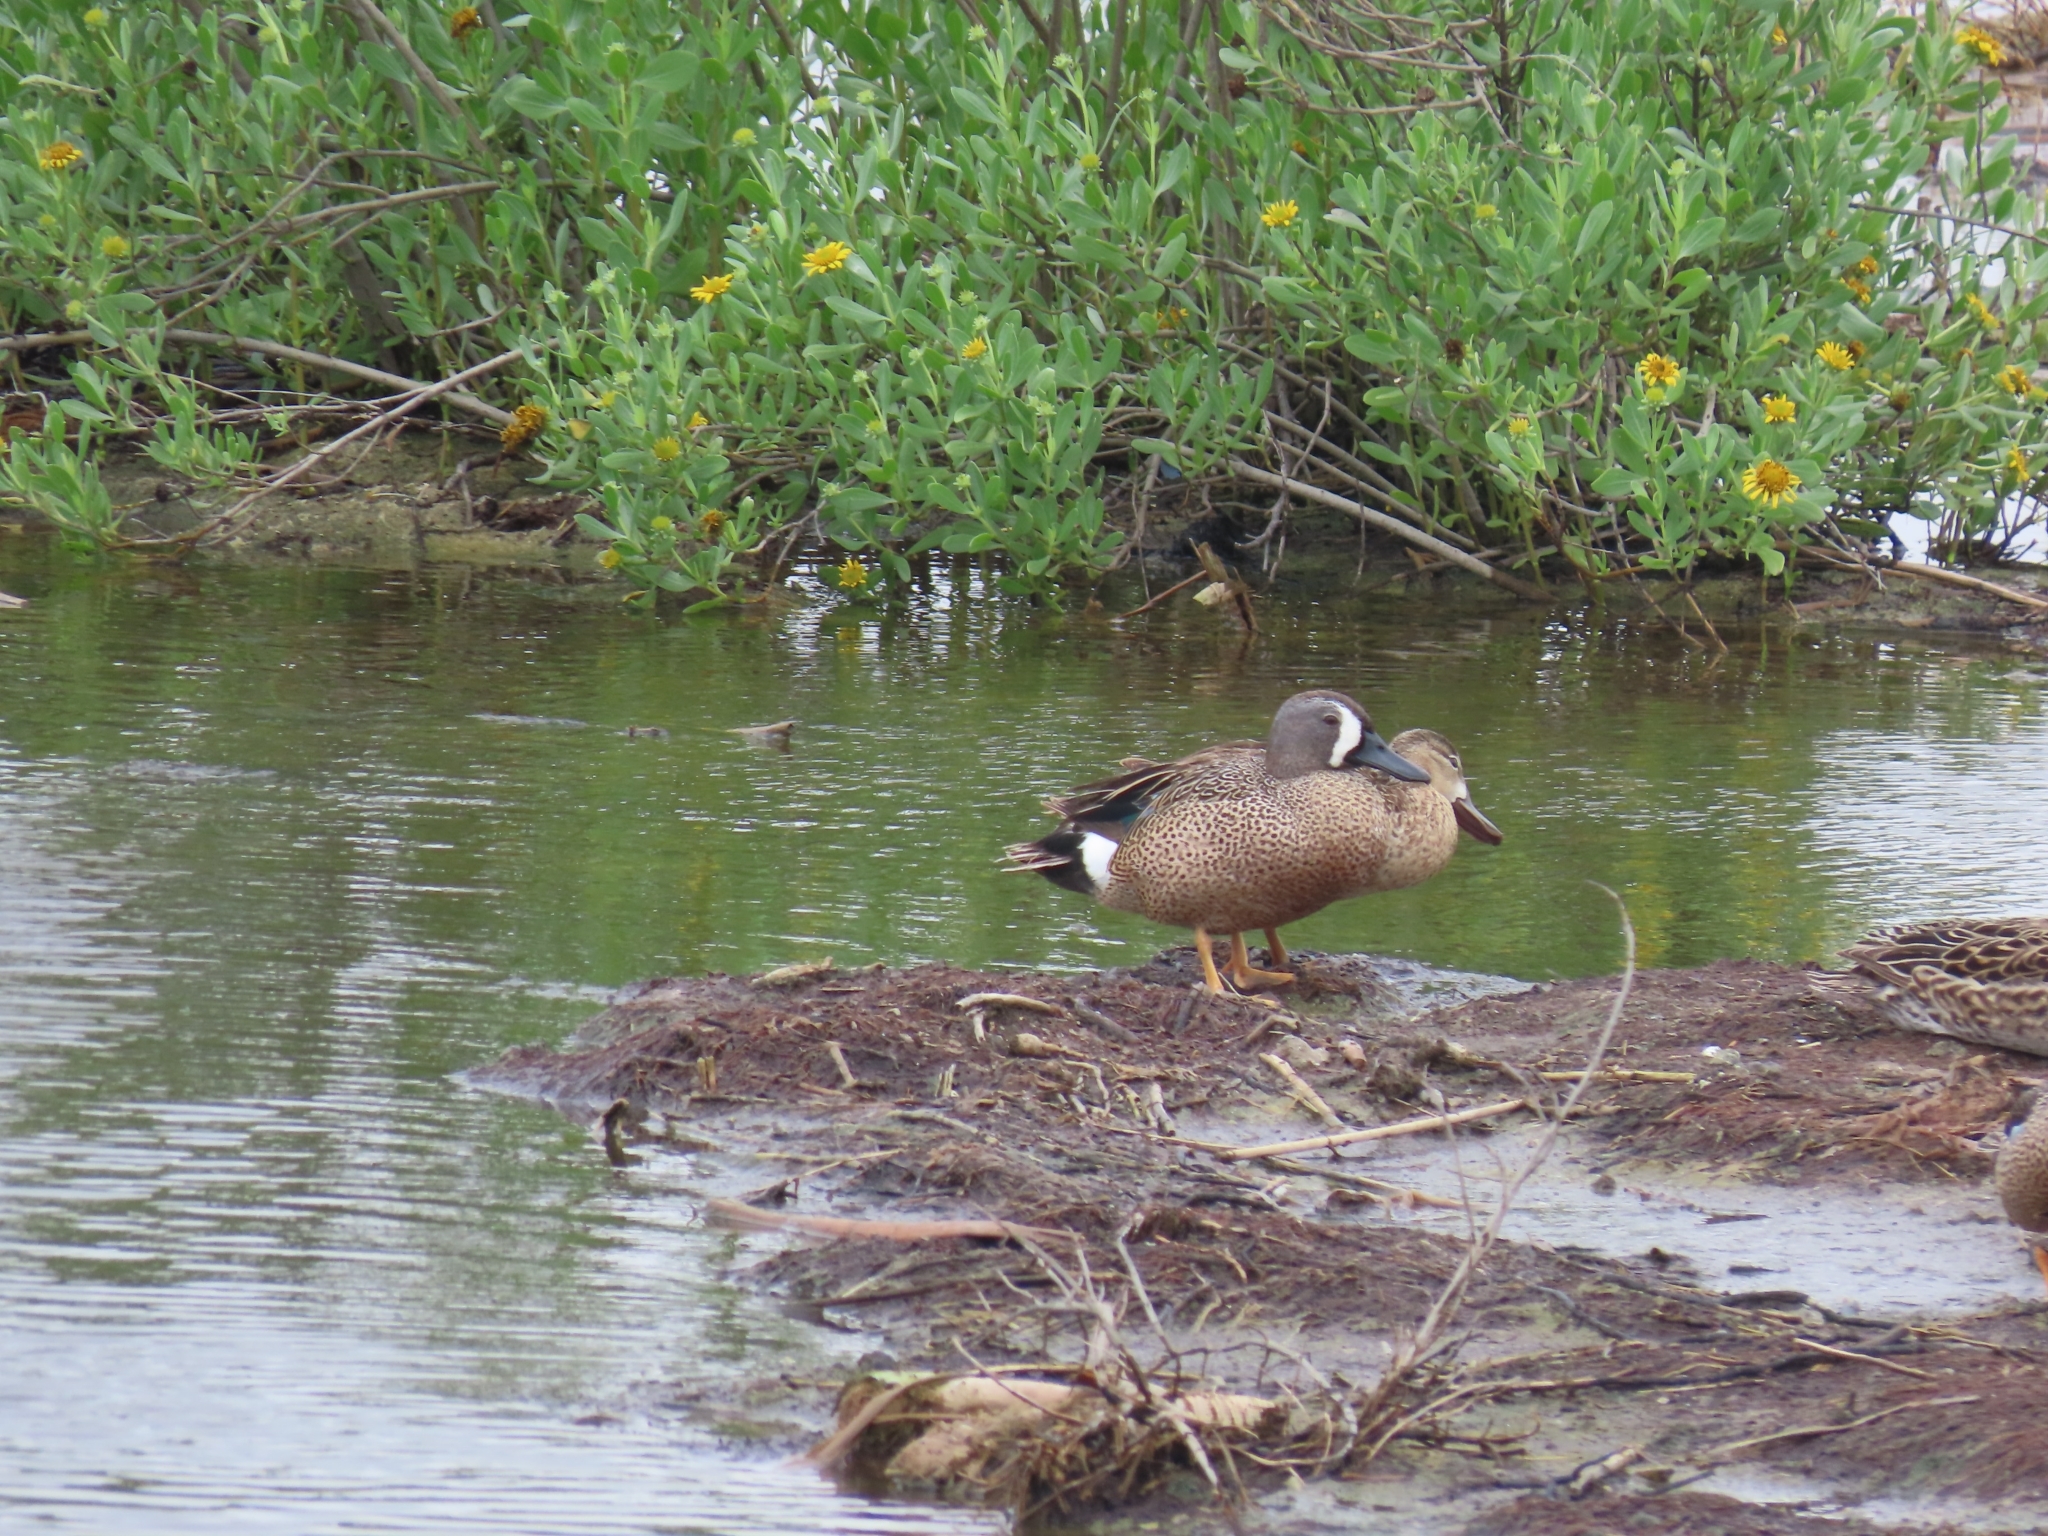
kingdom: Animalia
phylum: Chordata
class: Aves
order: Anseriformes
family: Anatidae
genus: Spatula
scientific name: Spatula discors
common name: Blue-winged teal
